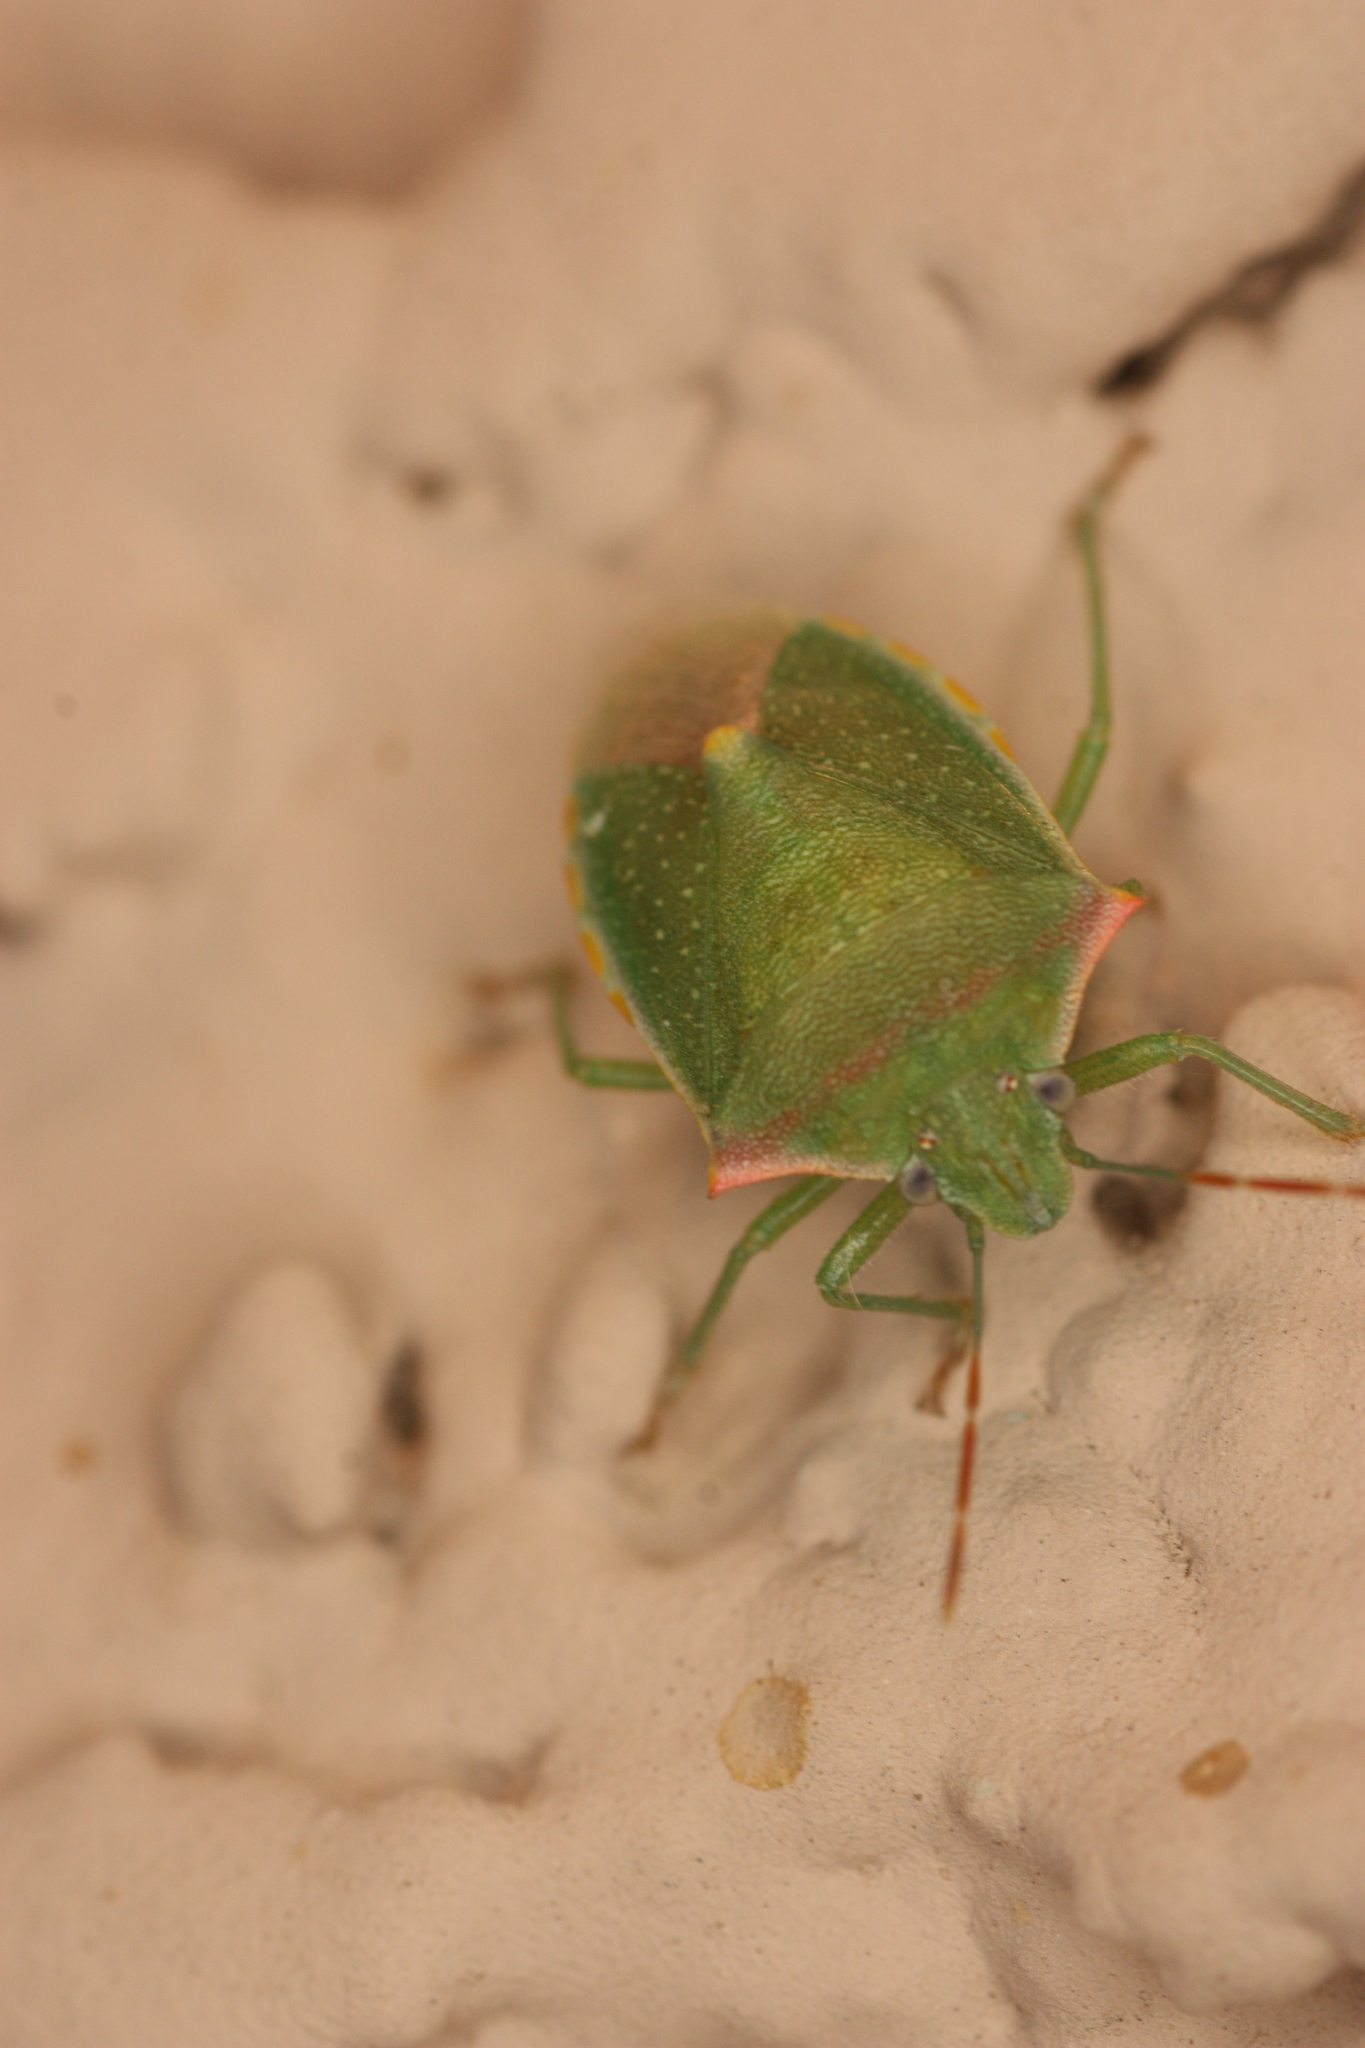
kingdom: Animalia
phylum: Arthropoda
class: Insecta
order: Hemiptera
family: Pentatomidae
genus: Thyanta
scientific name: Thyanta accerra
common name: Stink bug
